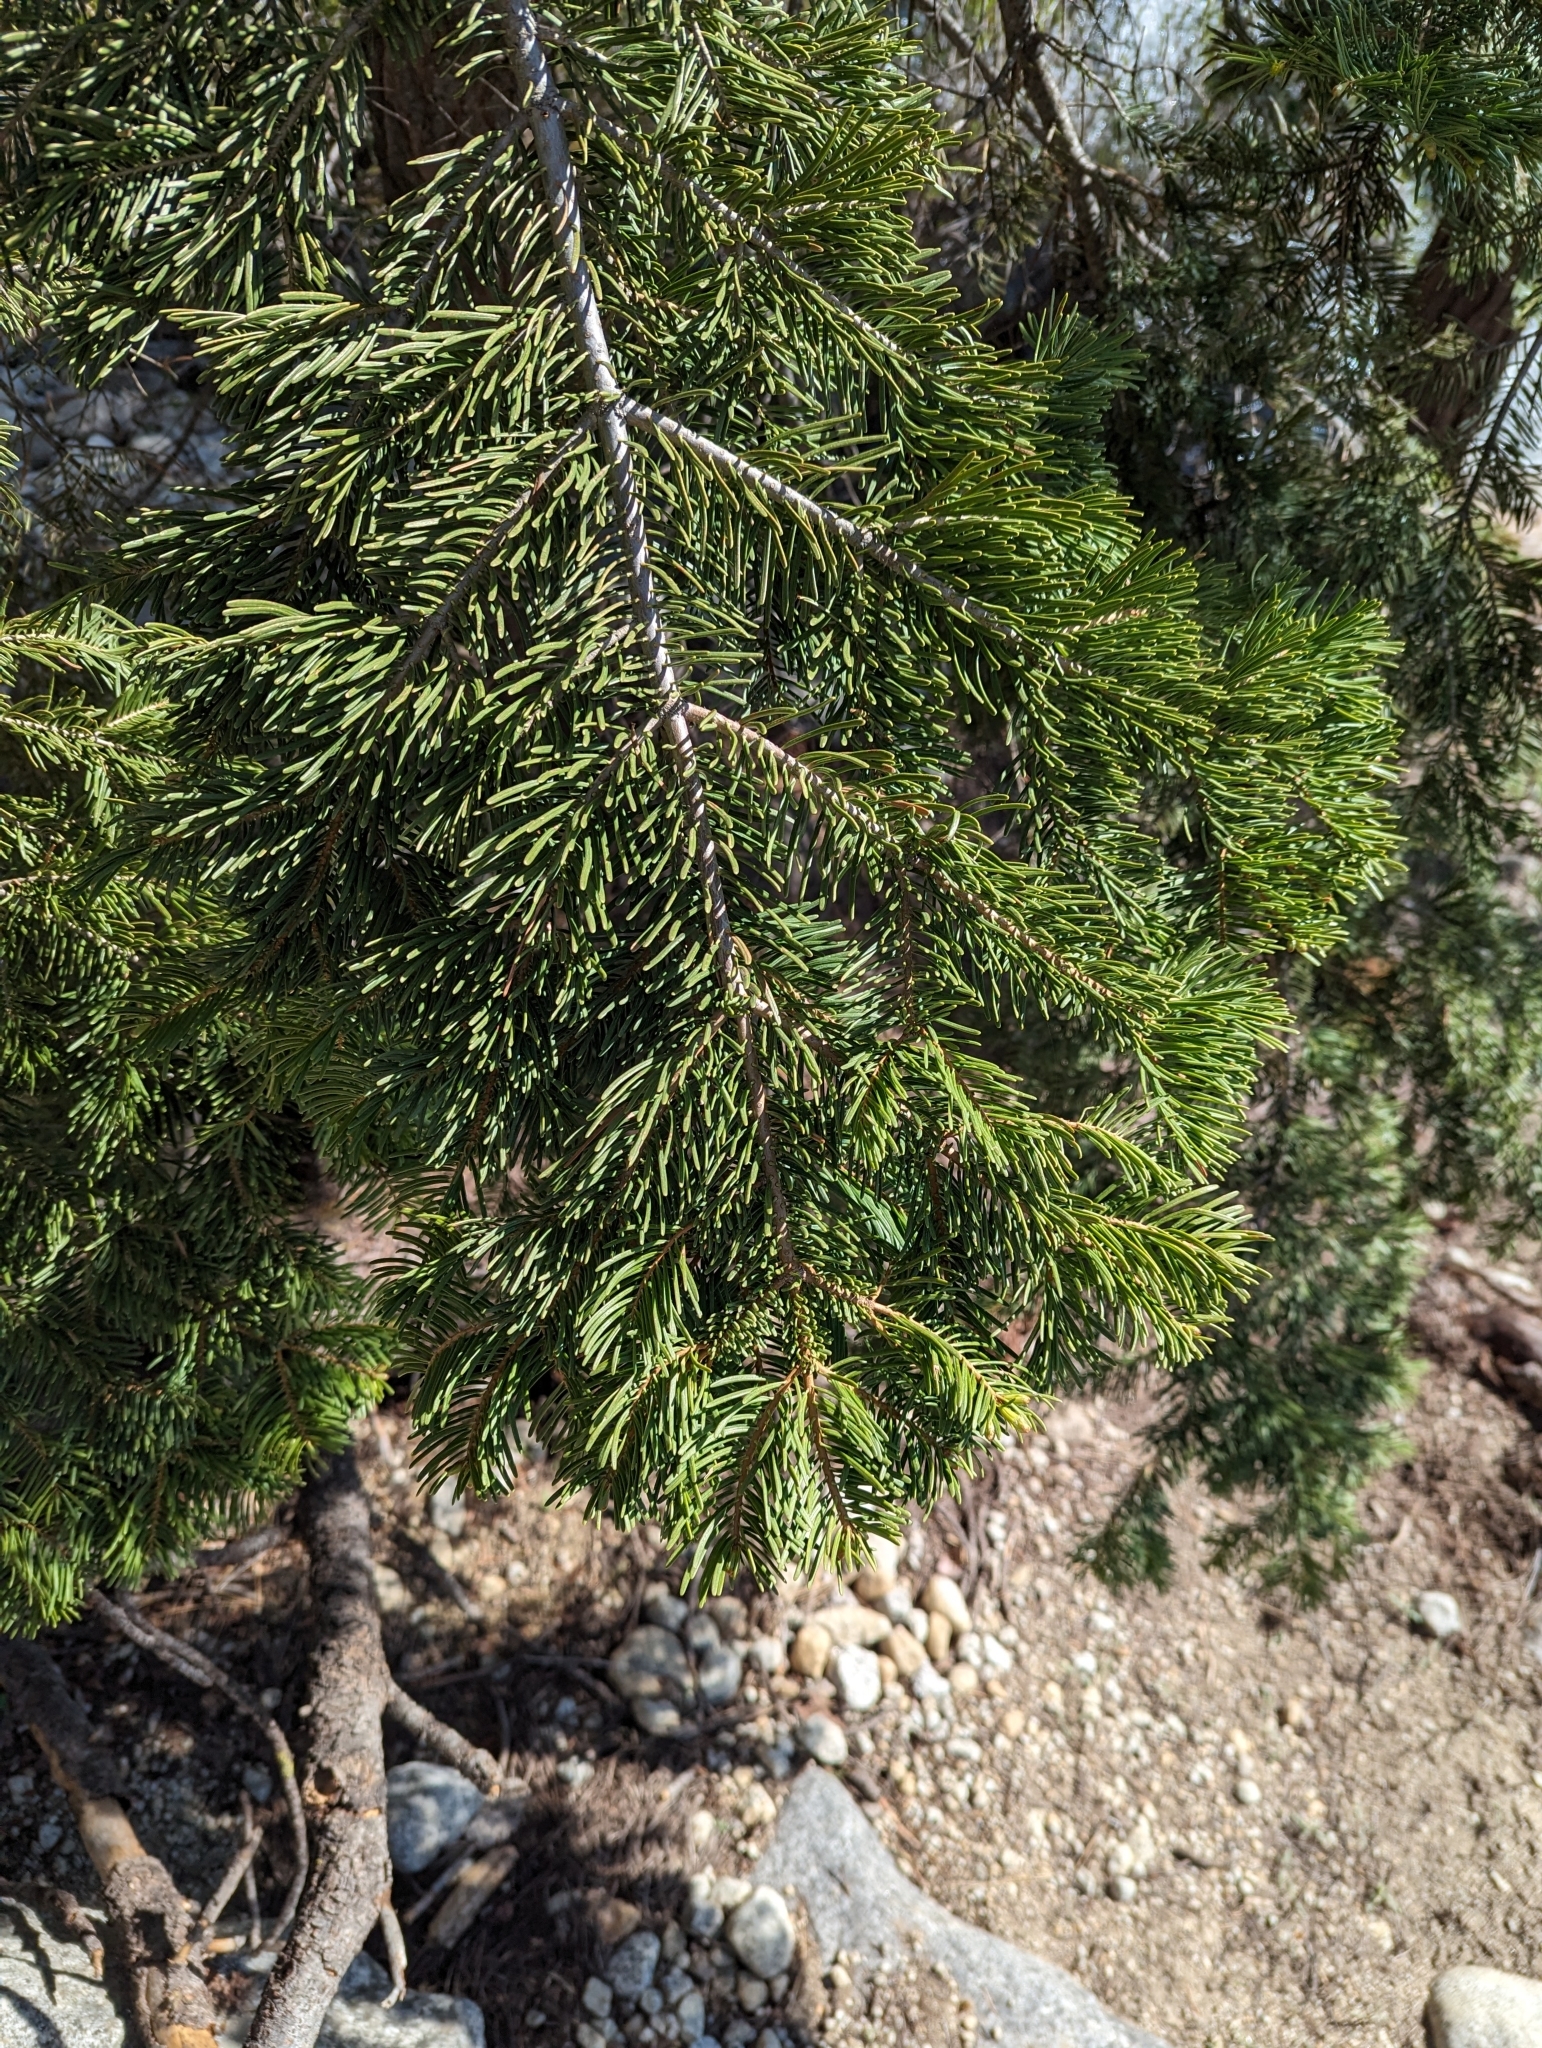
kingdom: Plantae
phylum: Tracheophyta
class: Pinopsida
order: Pinales
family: Pinaceae
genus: Abies
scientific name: Abies concolor
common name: Colorado fir
